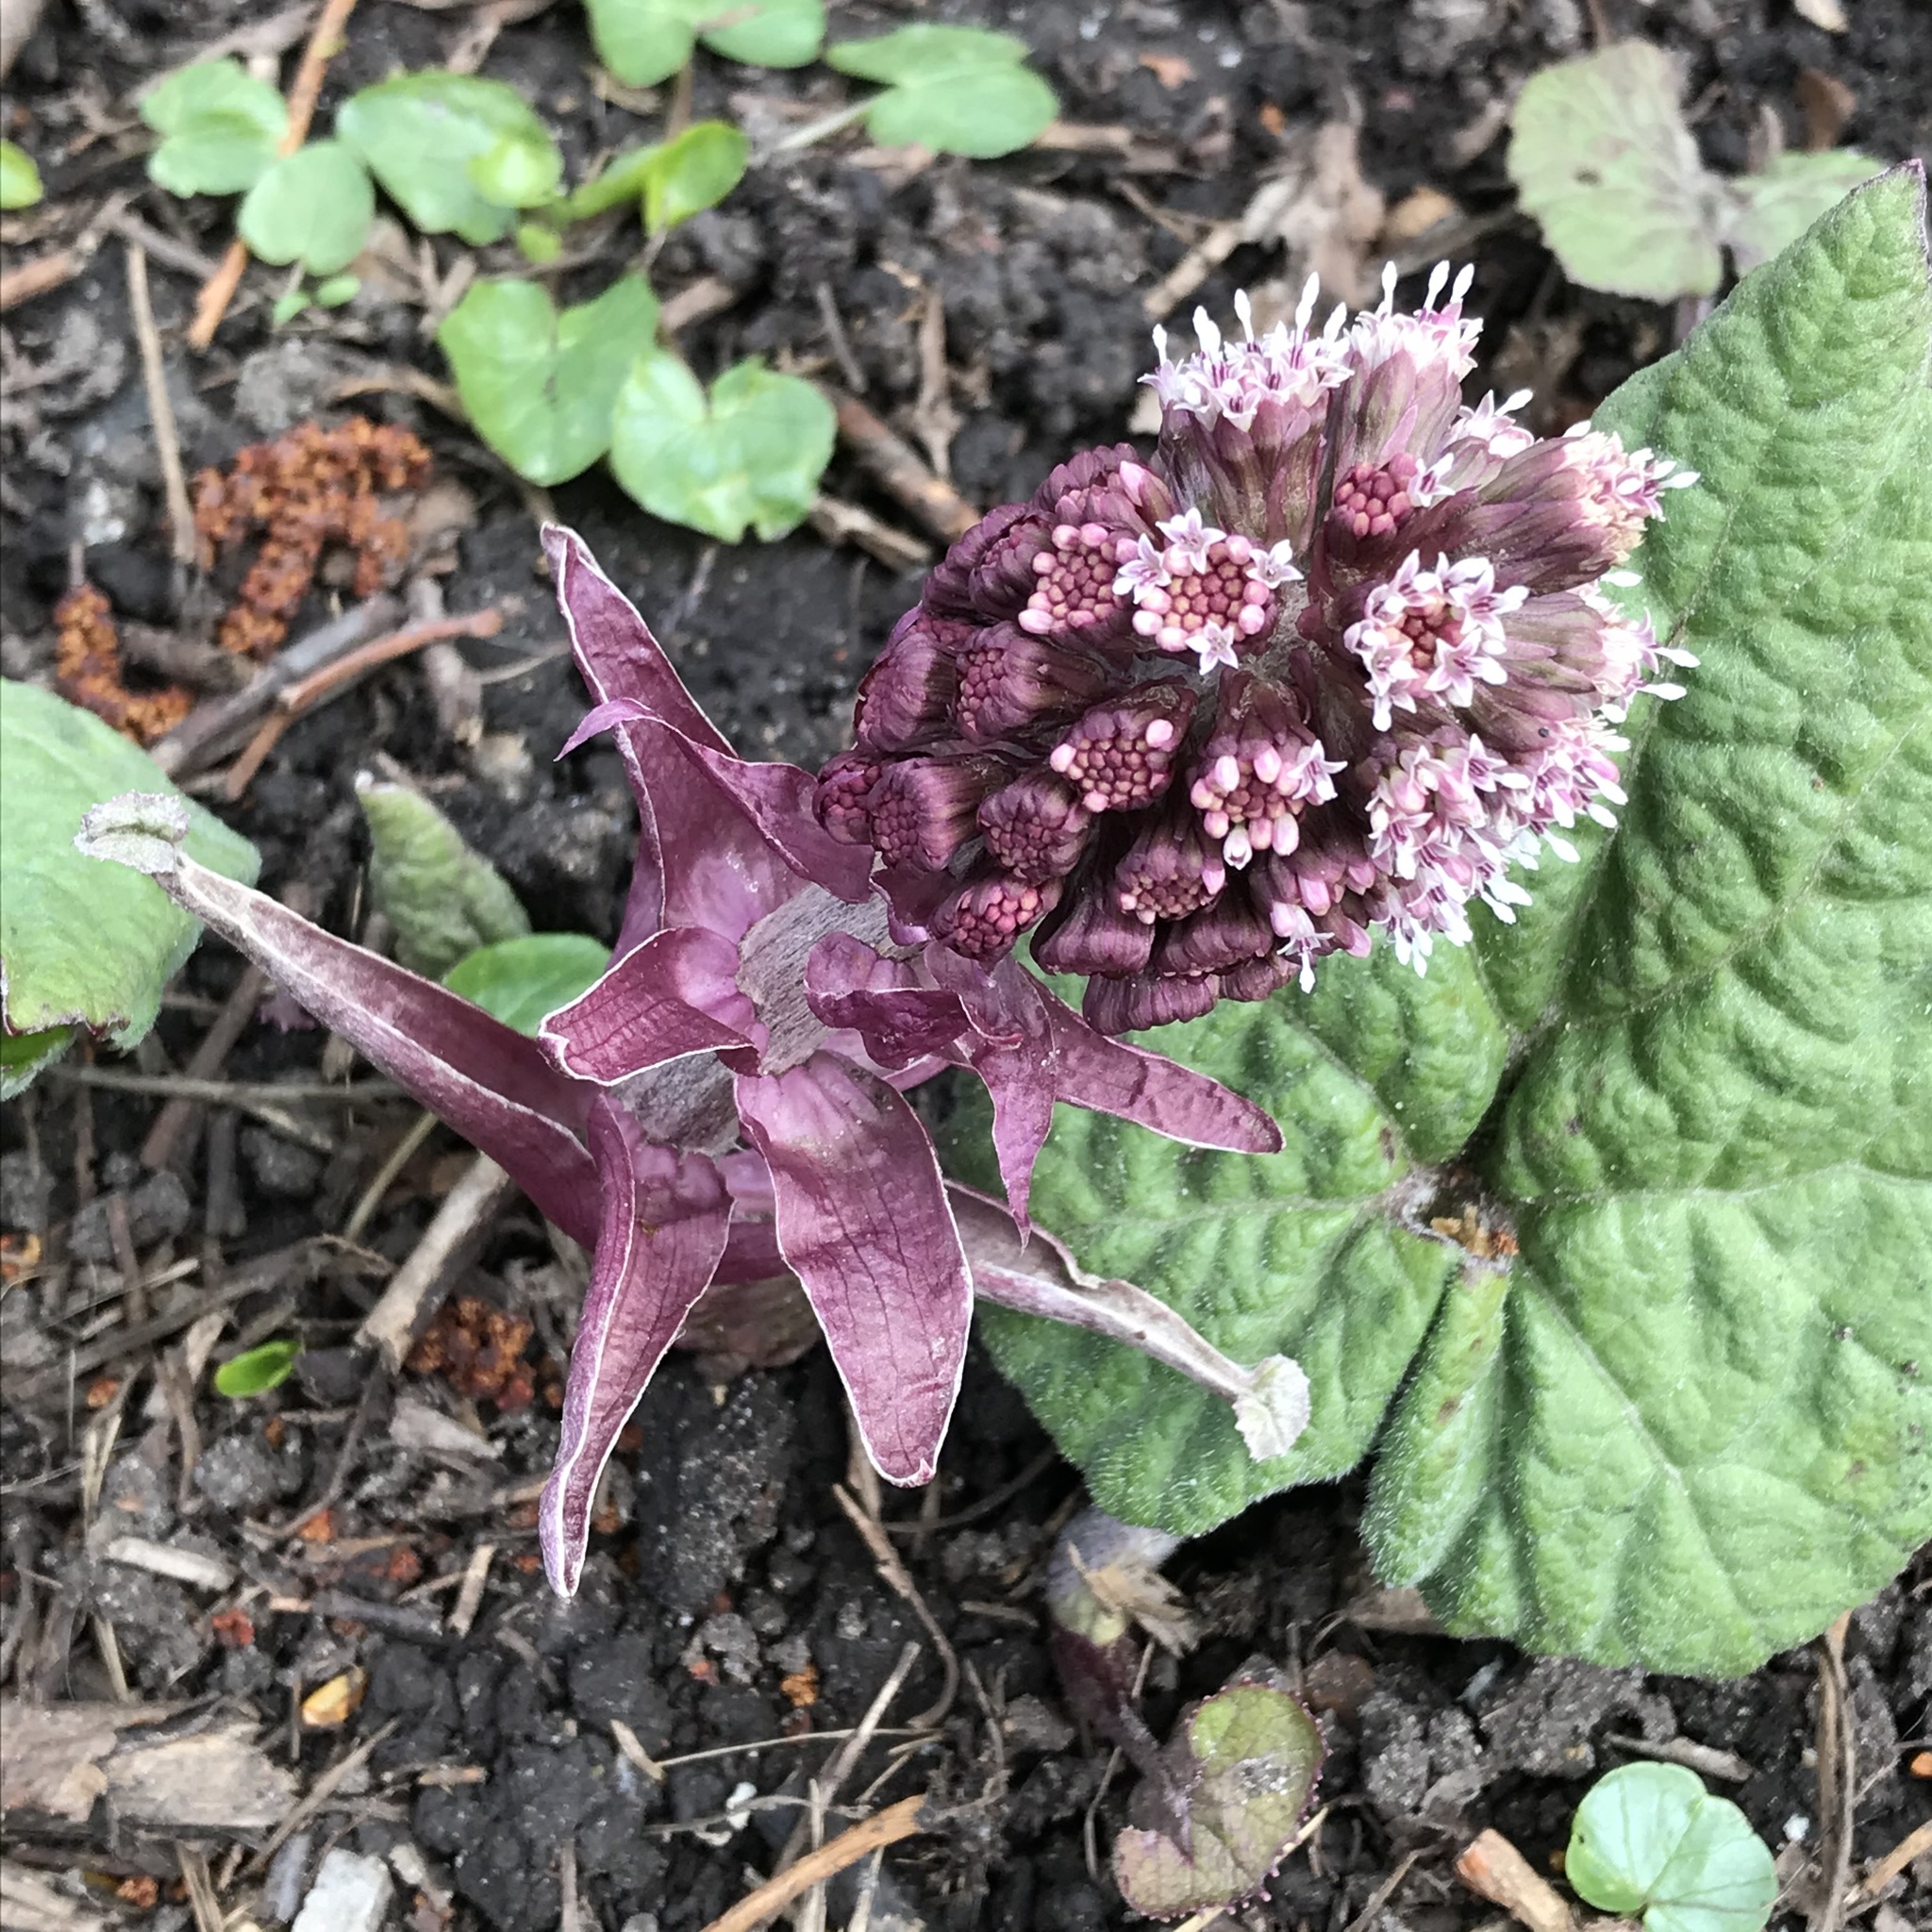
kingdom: Plantae
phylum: Tracheophyta
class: Magnoliopsida
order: Asterales
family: Asteraceae
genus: Petasites
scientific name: Petasites hybridus
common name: Butterbur
